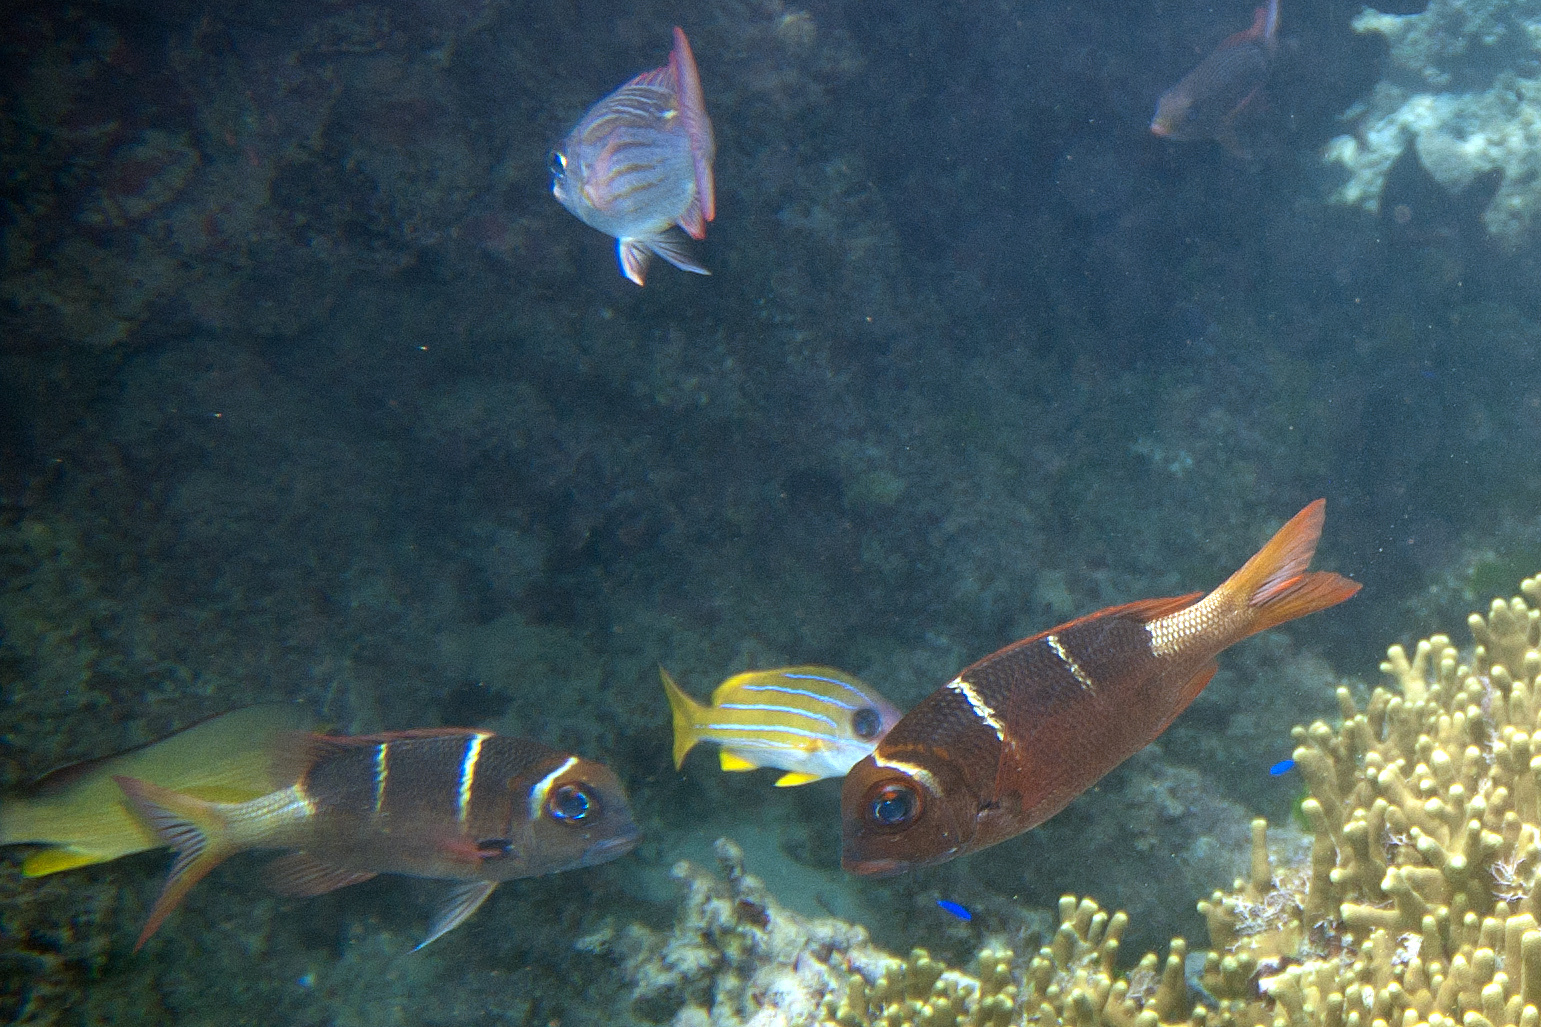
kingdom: Animalia
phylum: Chordata
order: Perciformes
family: Lethrinidae
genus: Monotaxis
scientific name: Monotaxis heterodon
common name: Redfin emperor
